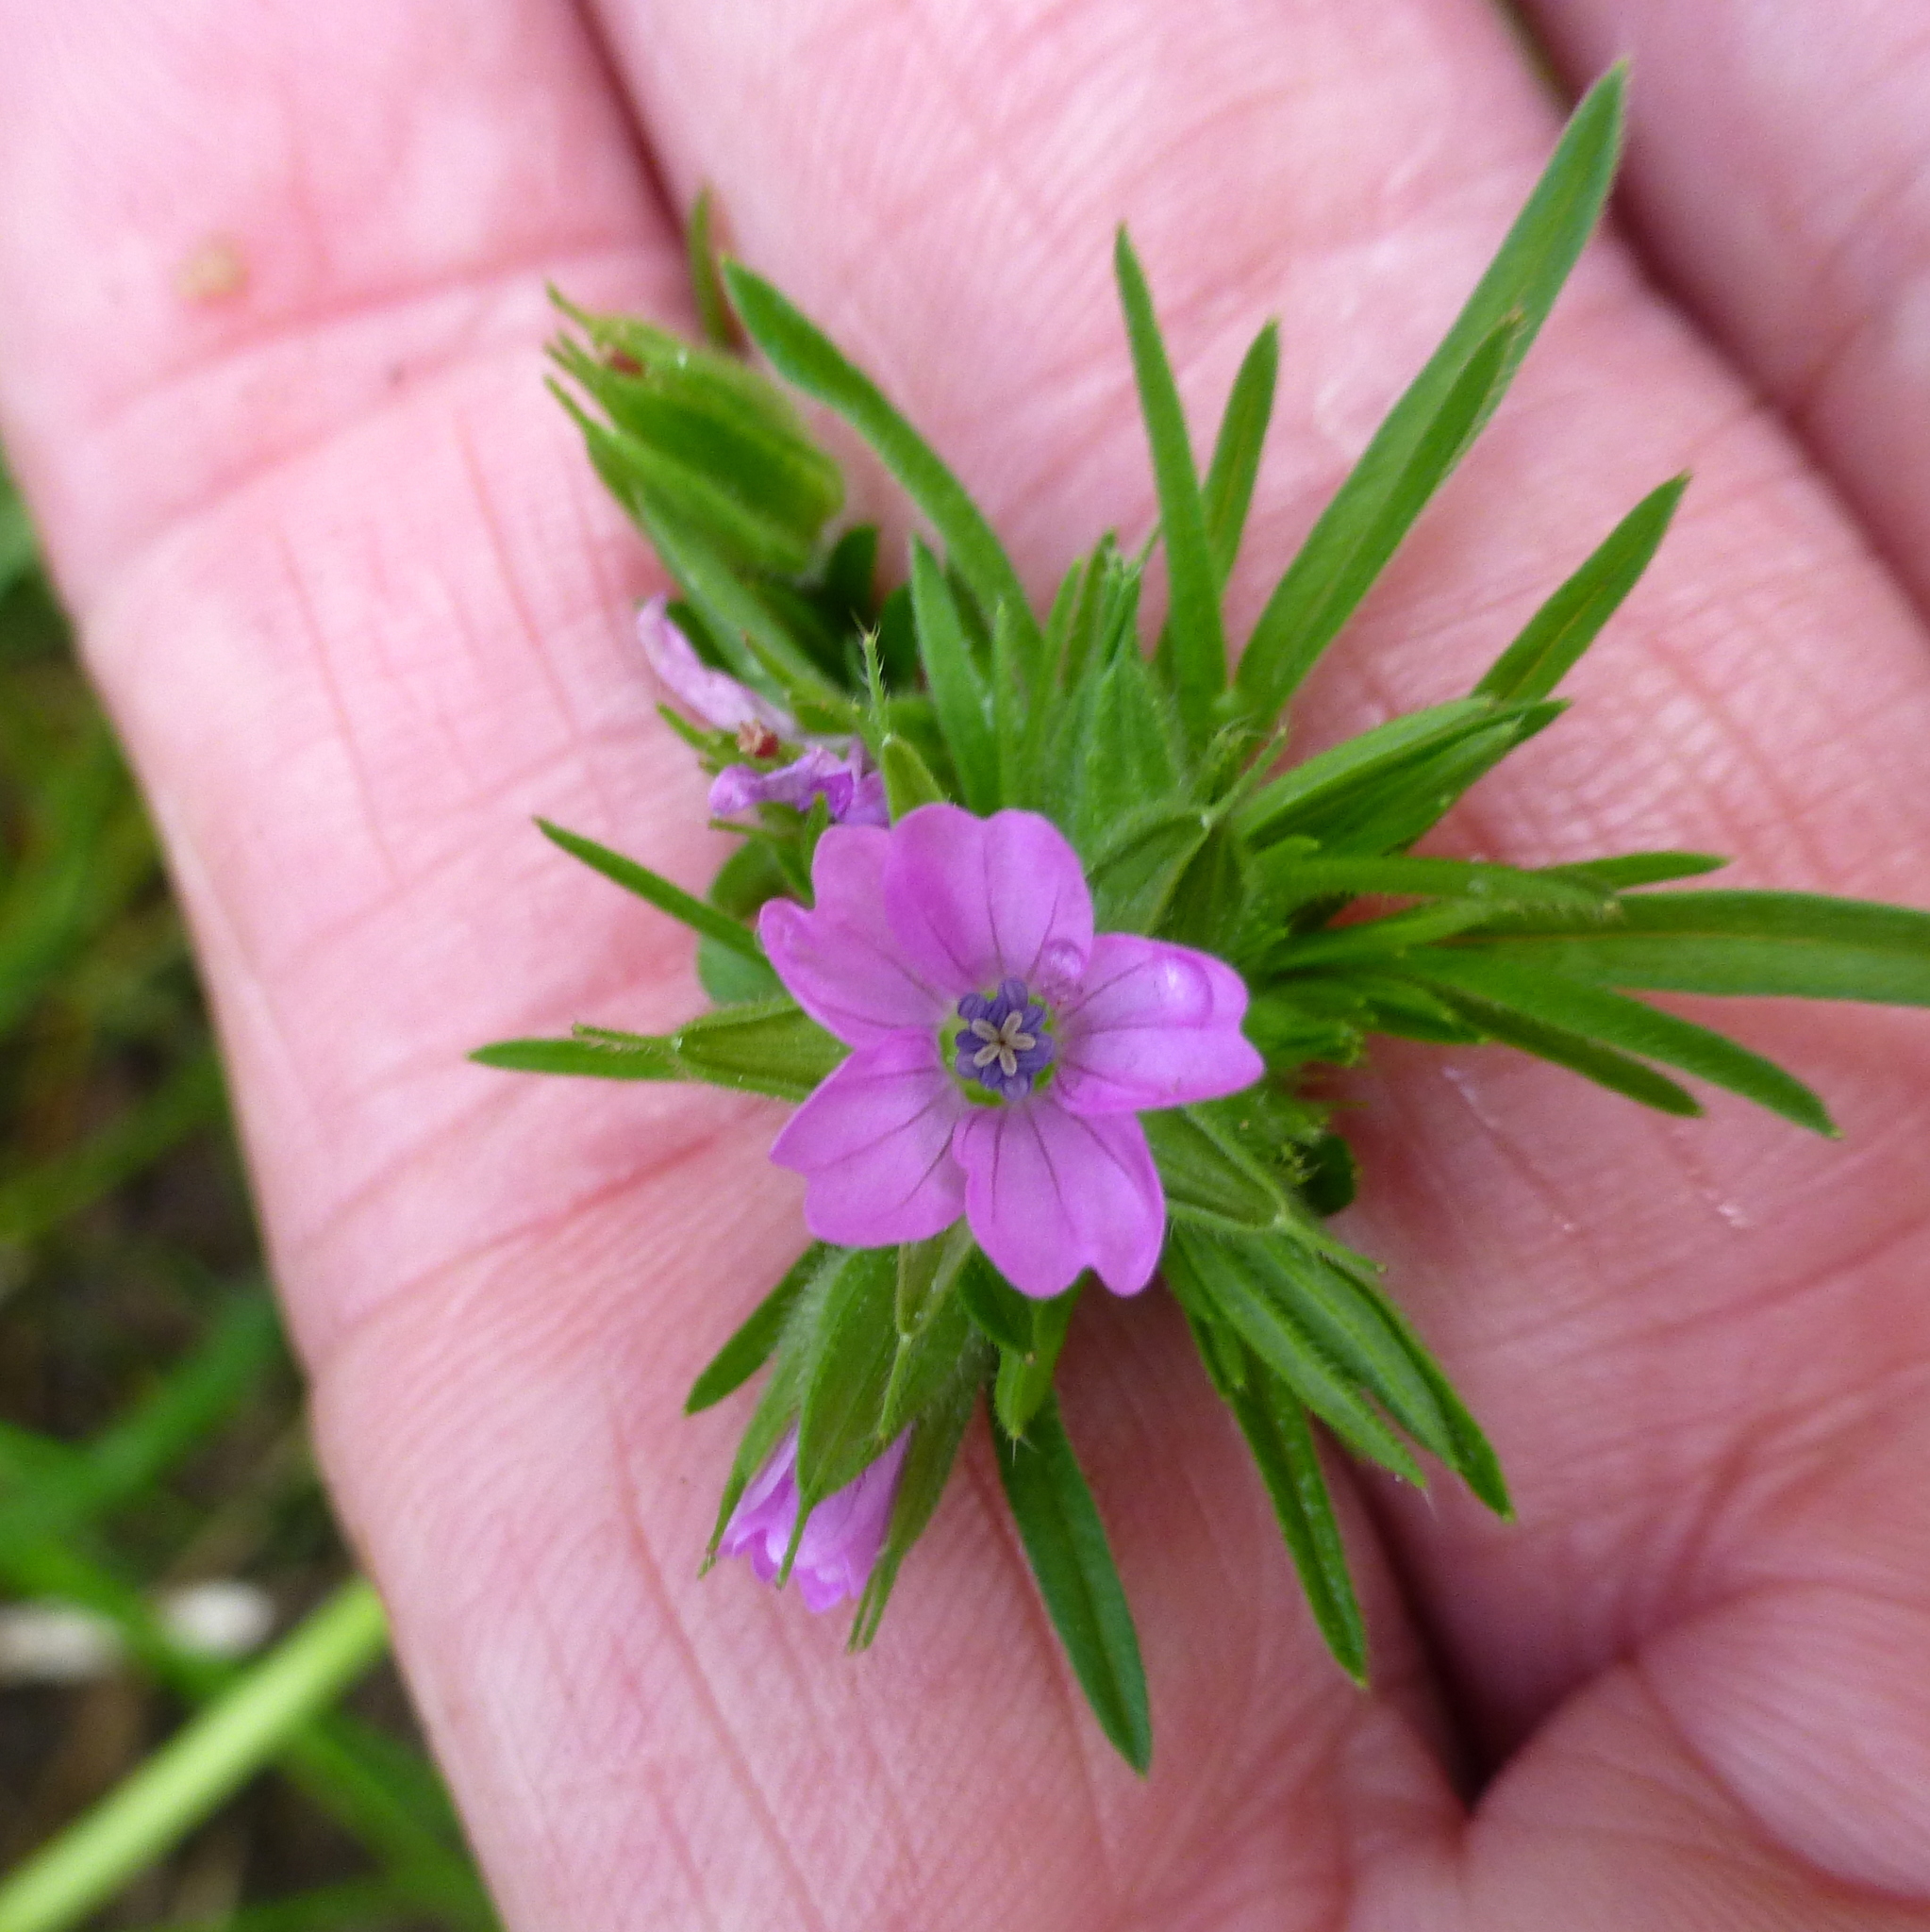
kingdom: Plantae
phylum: Tracheophyta
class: Magnoliopsida
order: Geraniales
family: Geraniaceae
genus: Geranium
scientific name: Geranium dissectum
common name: Cut-leaved crane's-bill
